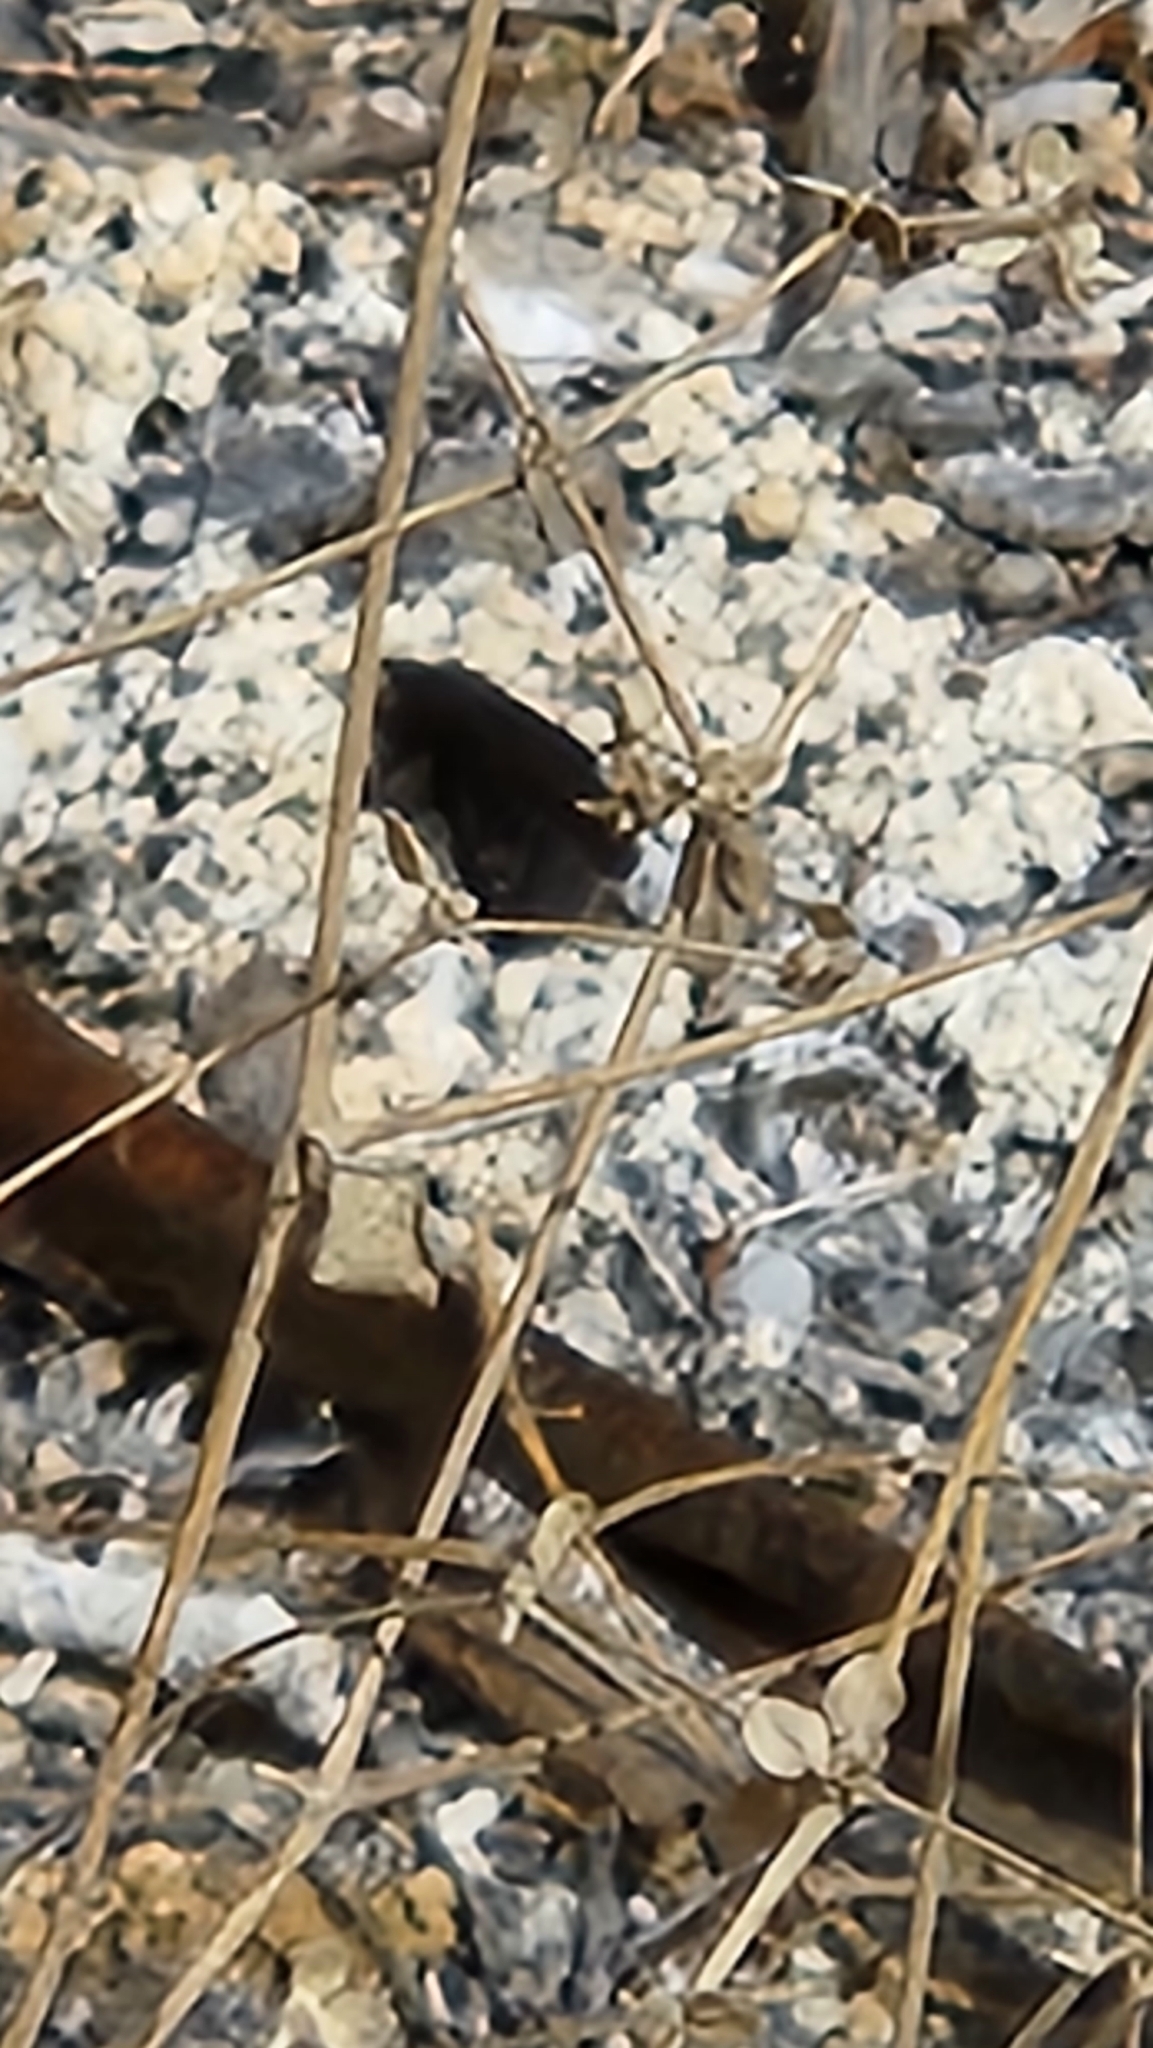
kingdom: Animalia
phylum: Arthropoda
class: Insecta
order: Lepidoptera
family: Nymphalidae
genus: Nymphalis
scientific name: Nymphalis antiopa
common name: Camberwell beauty
